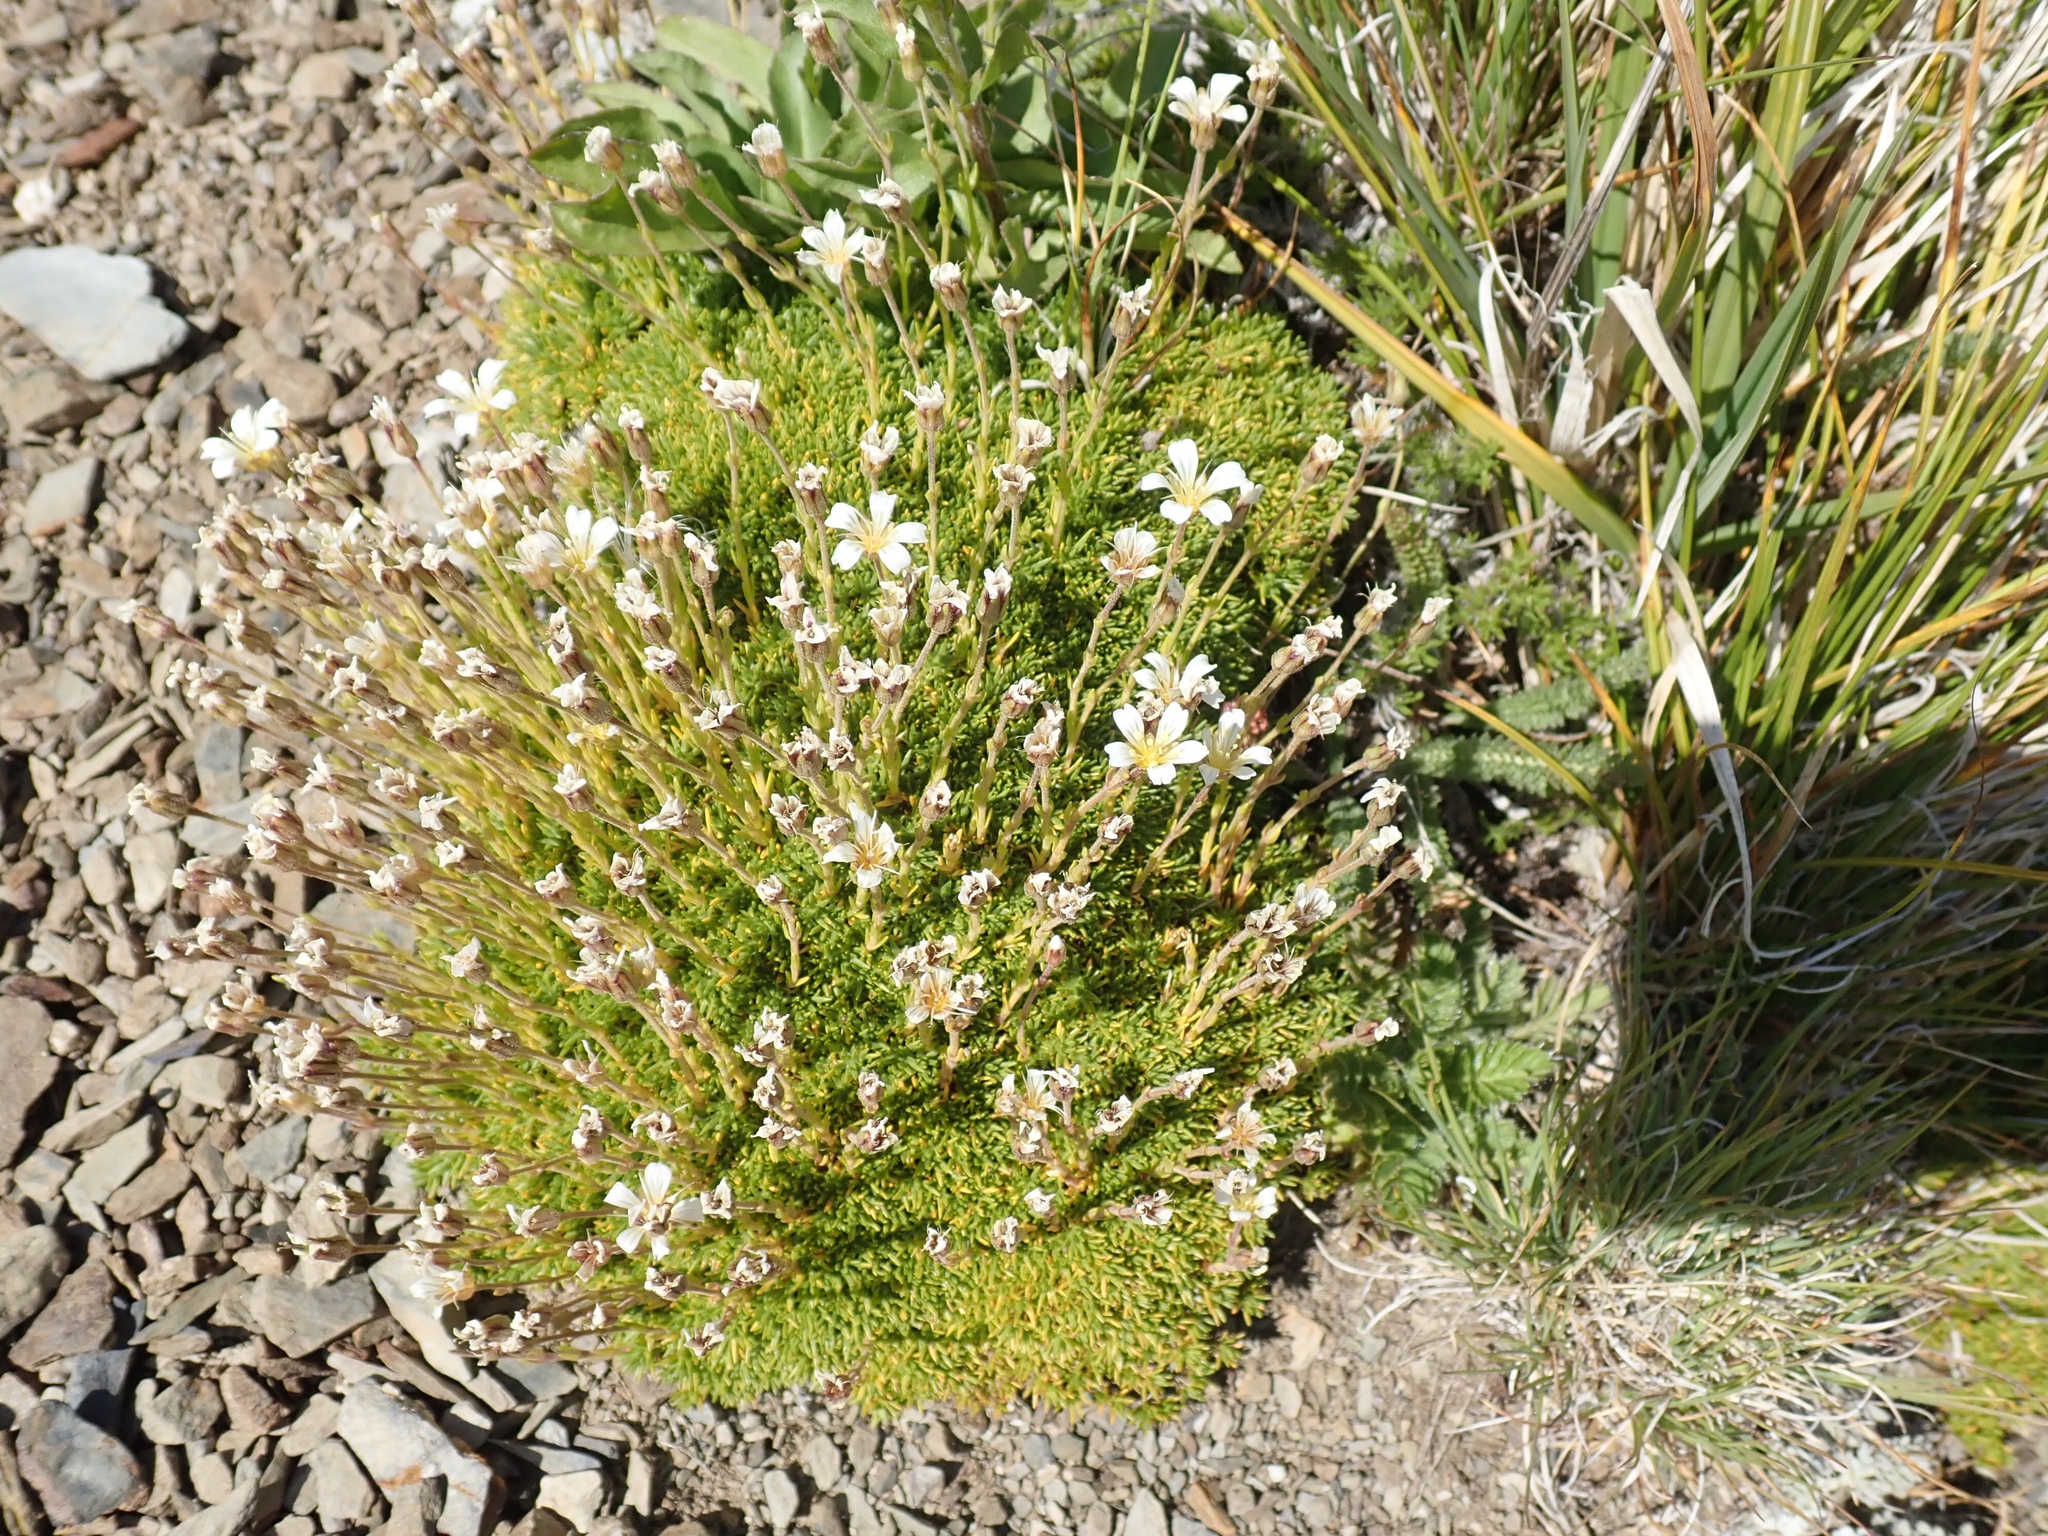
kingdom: Plantae
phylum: Tracheophyta
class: Magnoliopsida
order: Caryophyllales
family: Caryophyllaceae
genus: Cherleria
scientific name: Cherleria obtusiloba
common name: Alpine stitchwort
